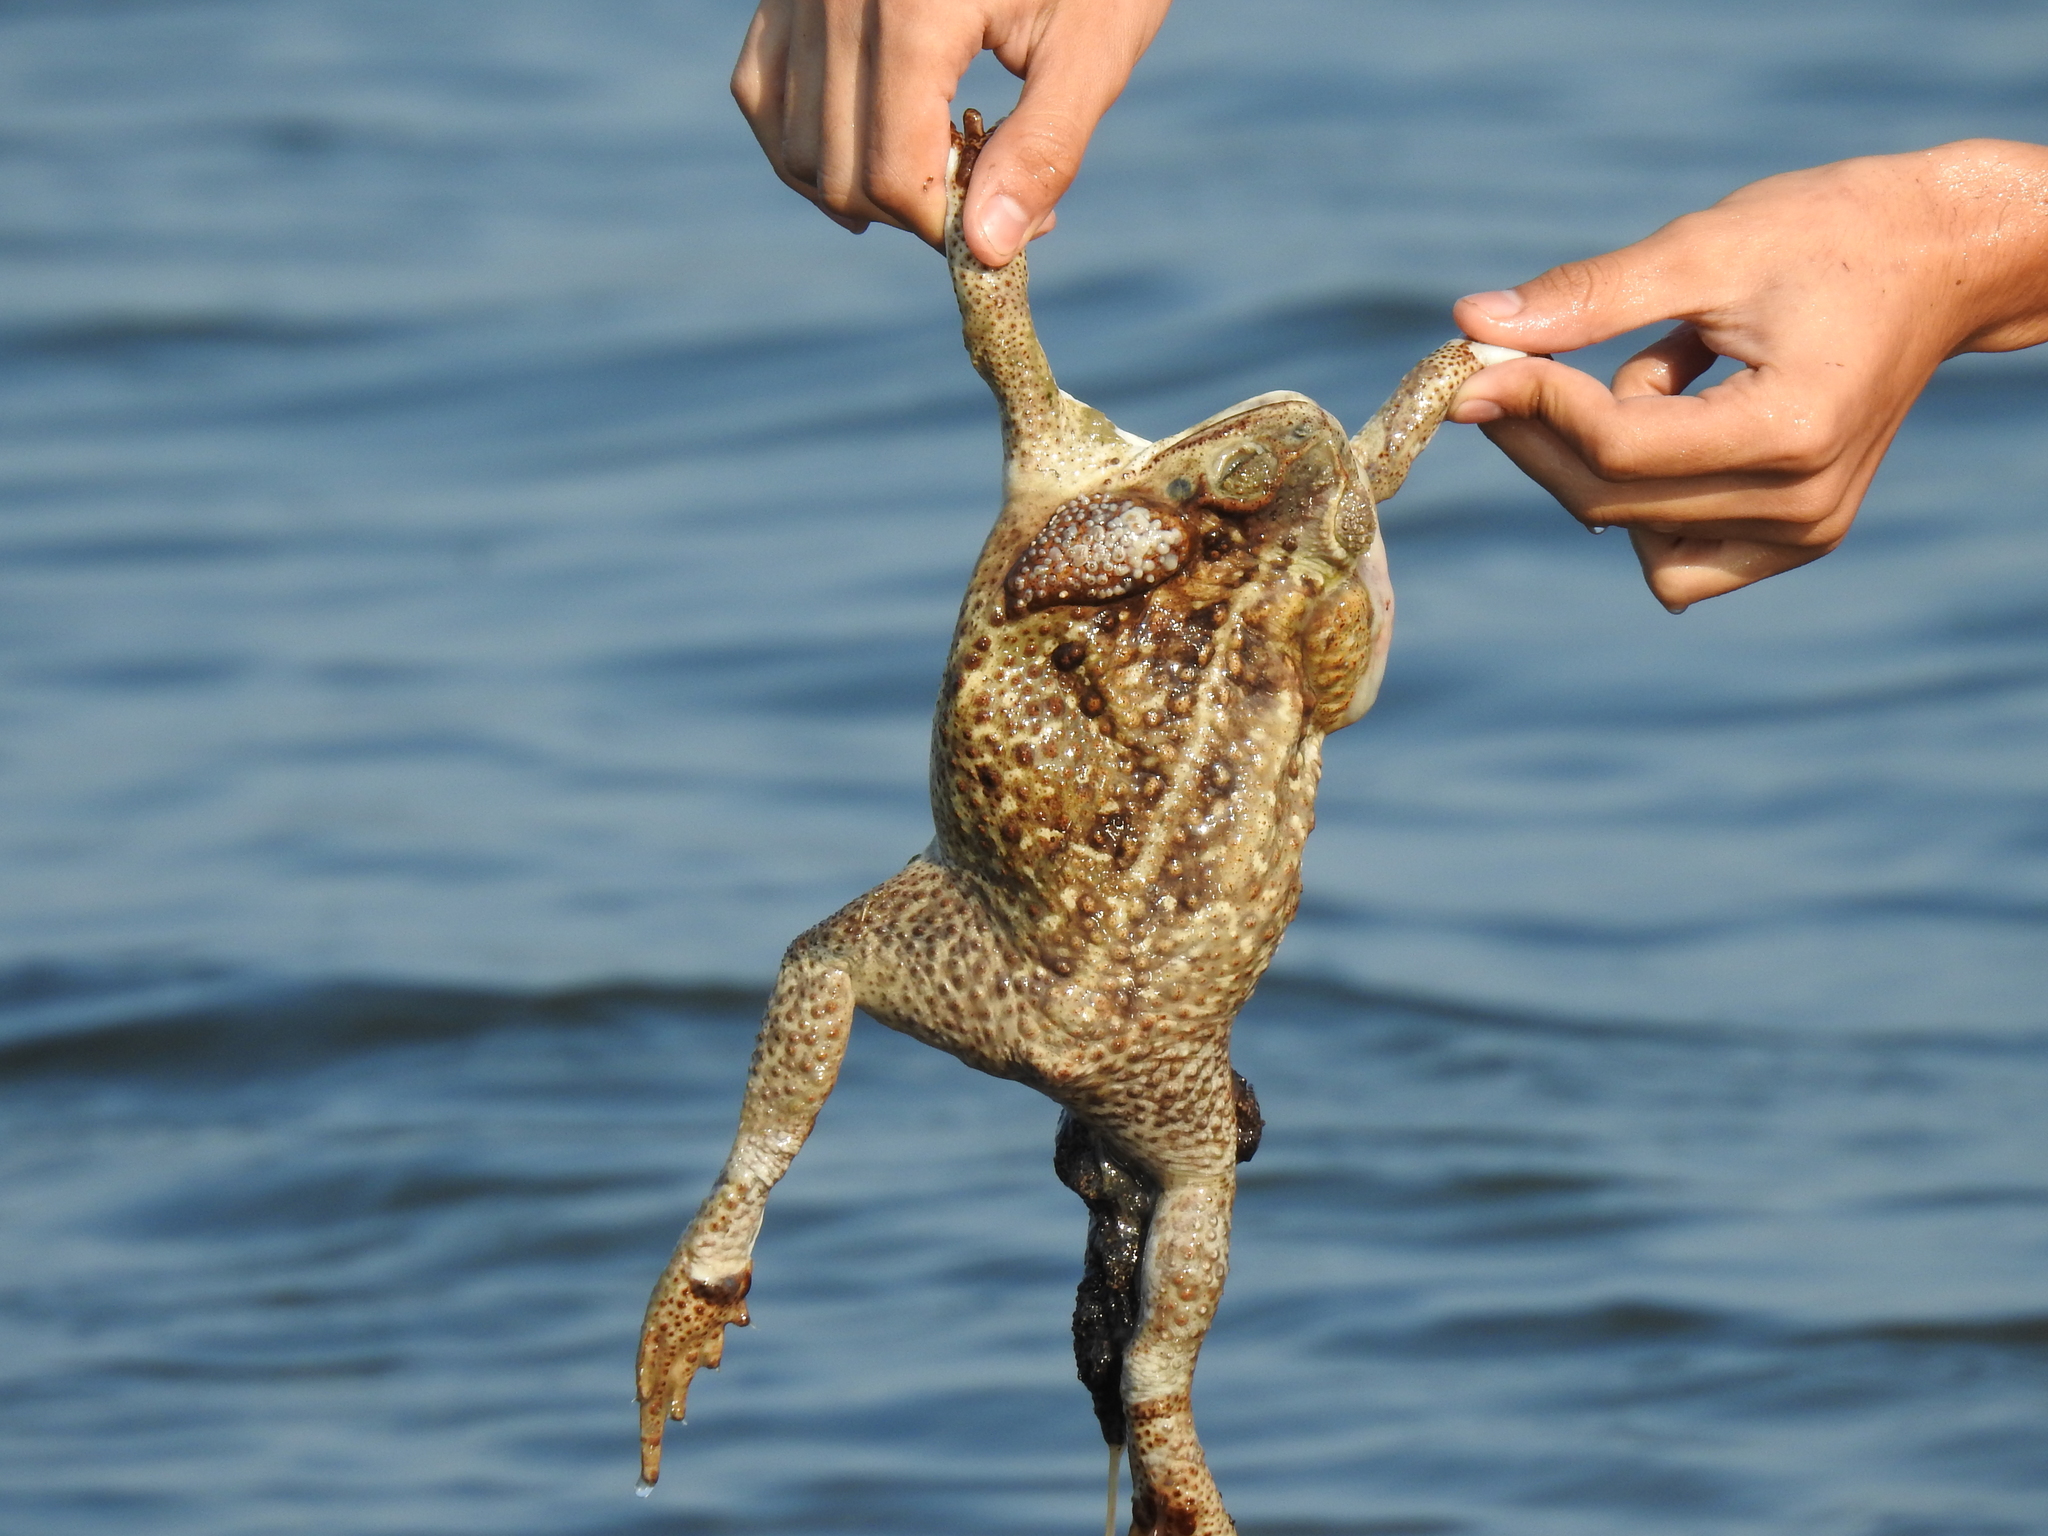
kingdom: Animalia
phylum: Chordata
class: Amphibia
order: Anura
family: Bufonidae
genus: Rhinella
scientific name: Rhinella horribilis
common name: Mesoamerican cane toad
